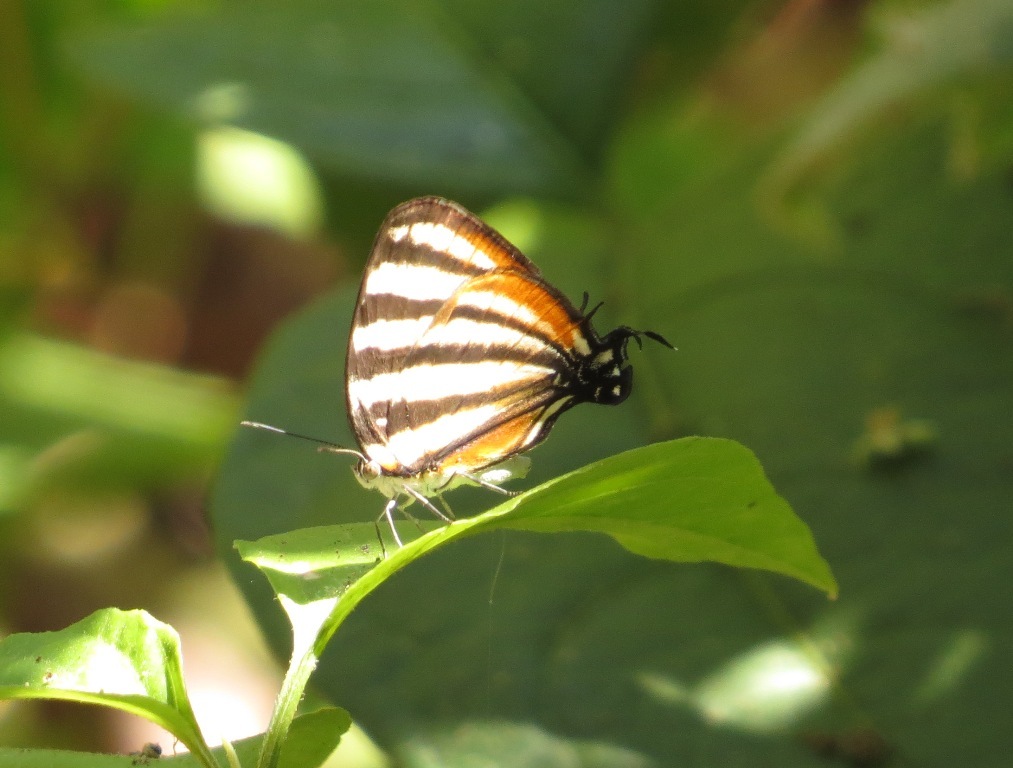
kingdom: Animalia
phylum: Arthropoda
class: Insecta
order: Lepidoptera
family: Lycaenidae
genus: Arawacus
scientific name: Arawacus lincoides
